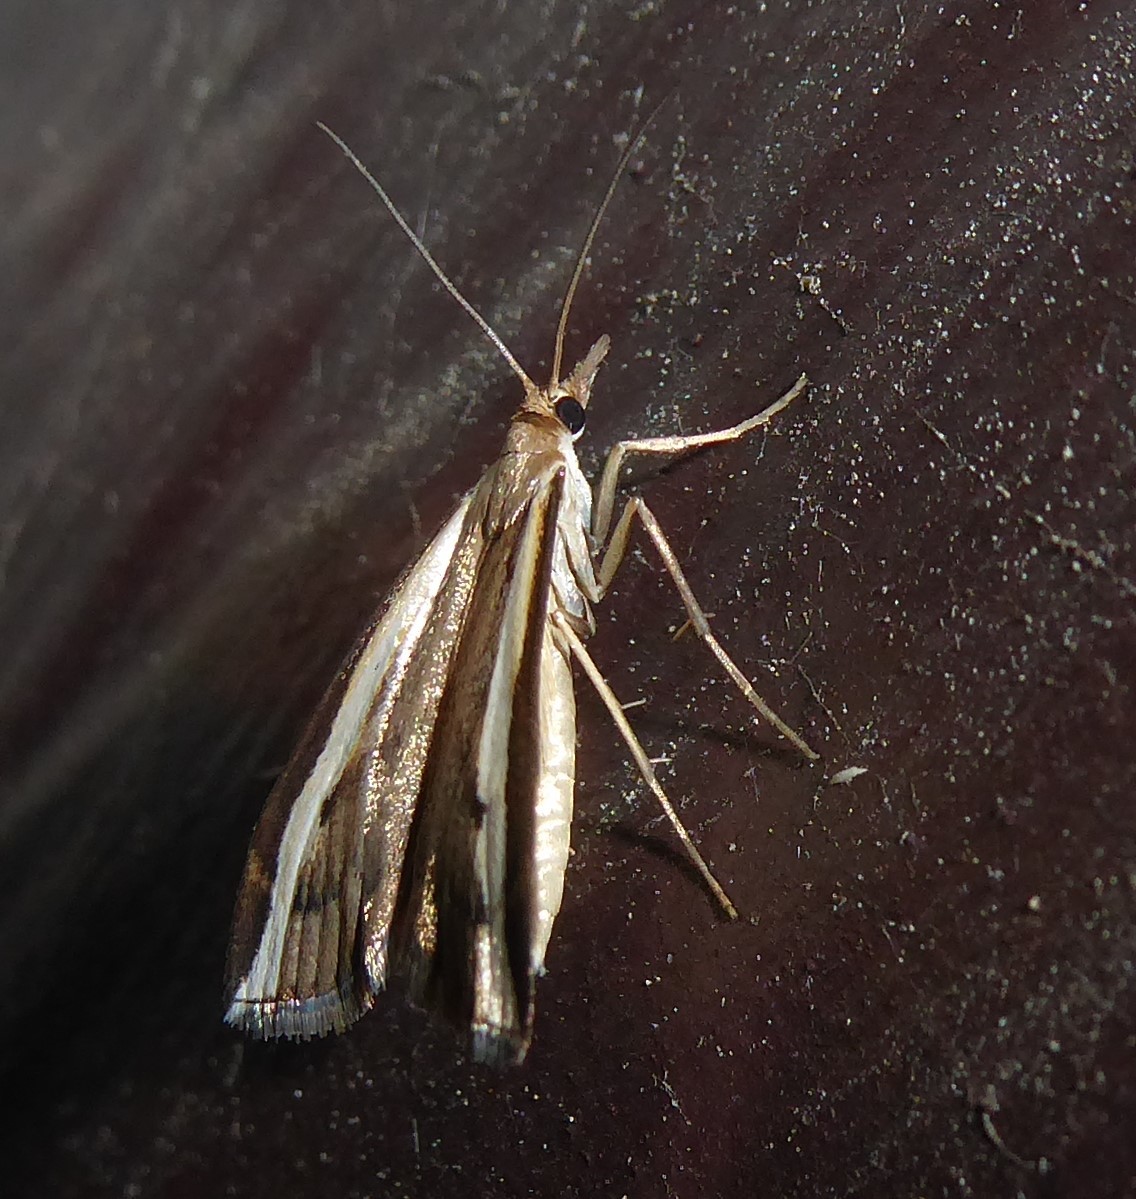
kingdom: Animalia
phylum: Arthropoda
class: Insecta
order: Lepidoptera
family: Crambidae
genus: Orocrambus
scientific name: Orocrambus flexuosellus
